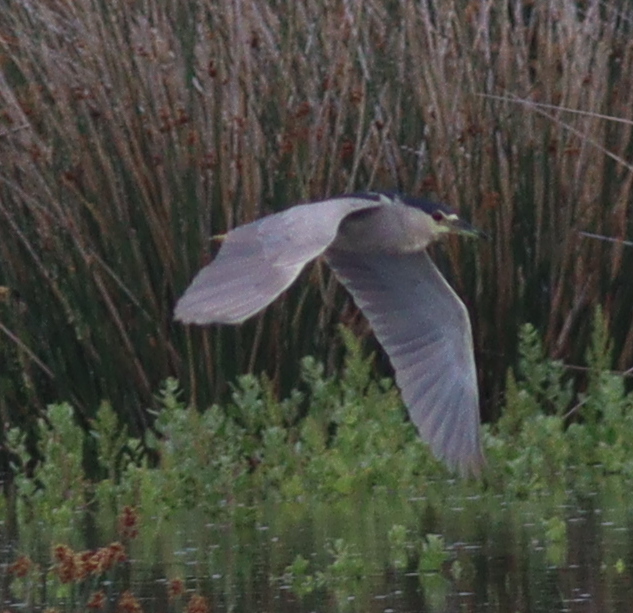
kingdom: Animalia
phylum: Chordata
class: Aves
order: Pelecaniformes
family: Ardeidae
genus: Nycticorax
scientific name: Nycticorax nycticorax
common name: Black-crowned night heron
